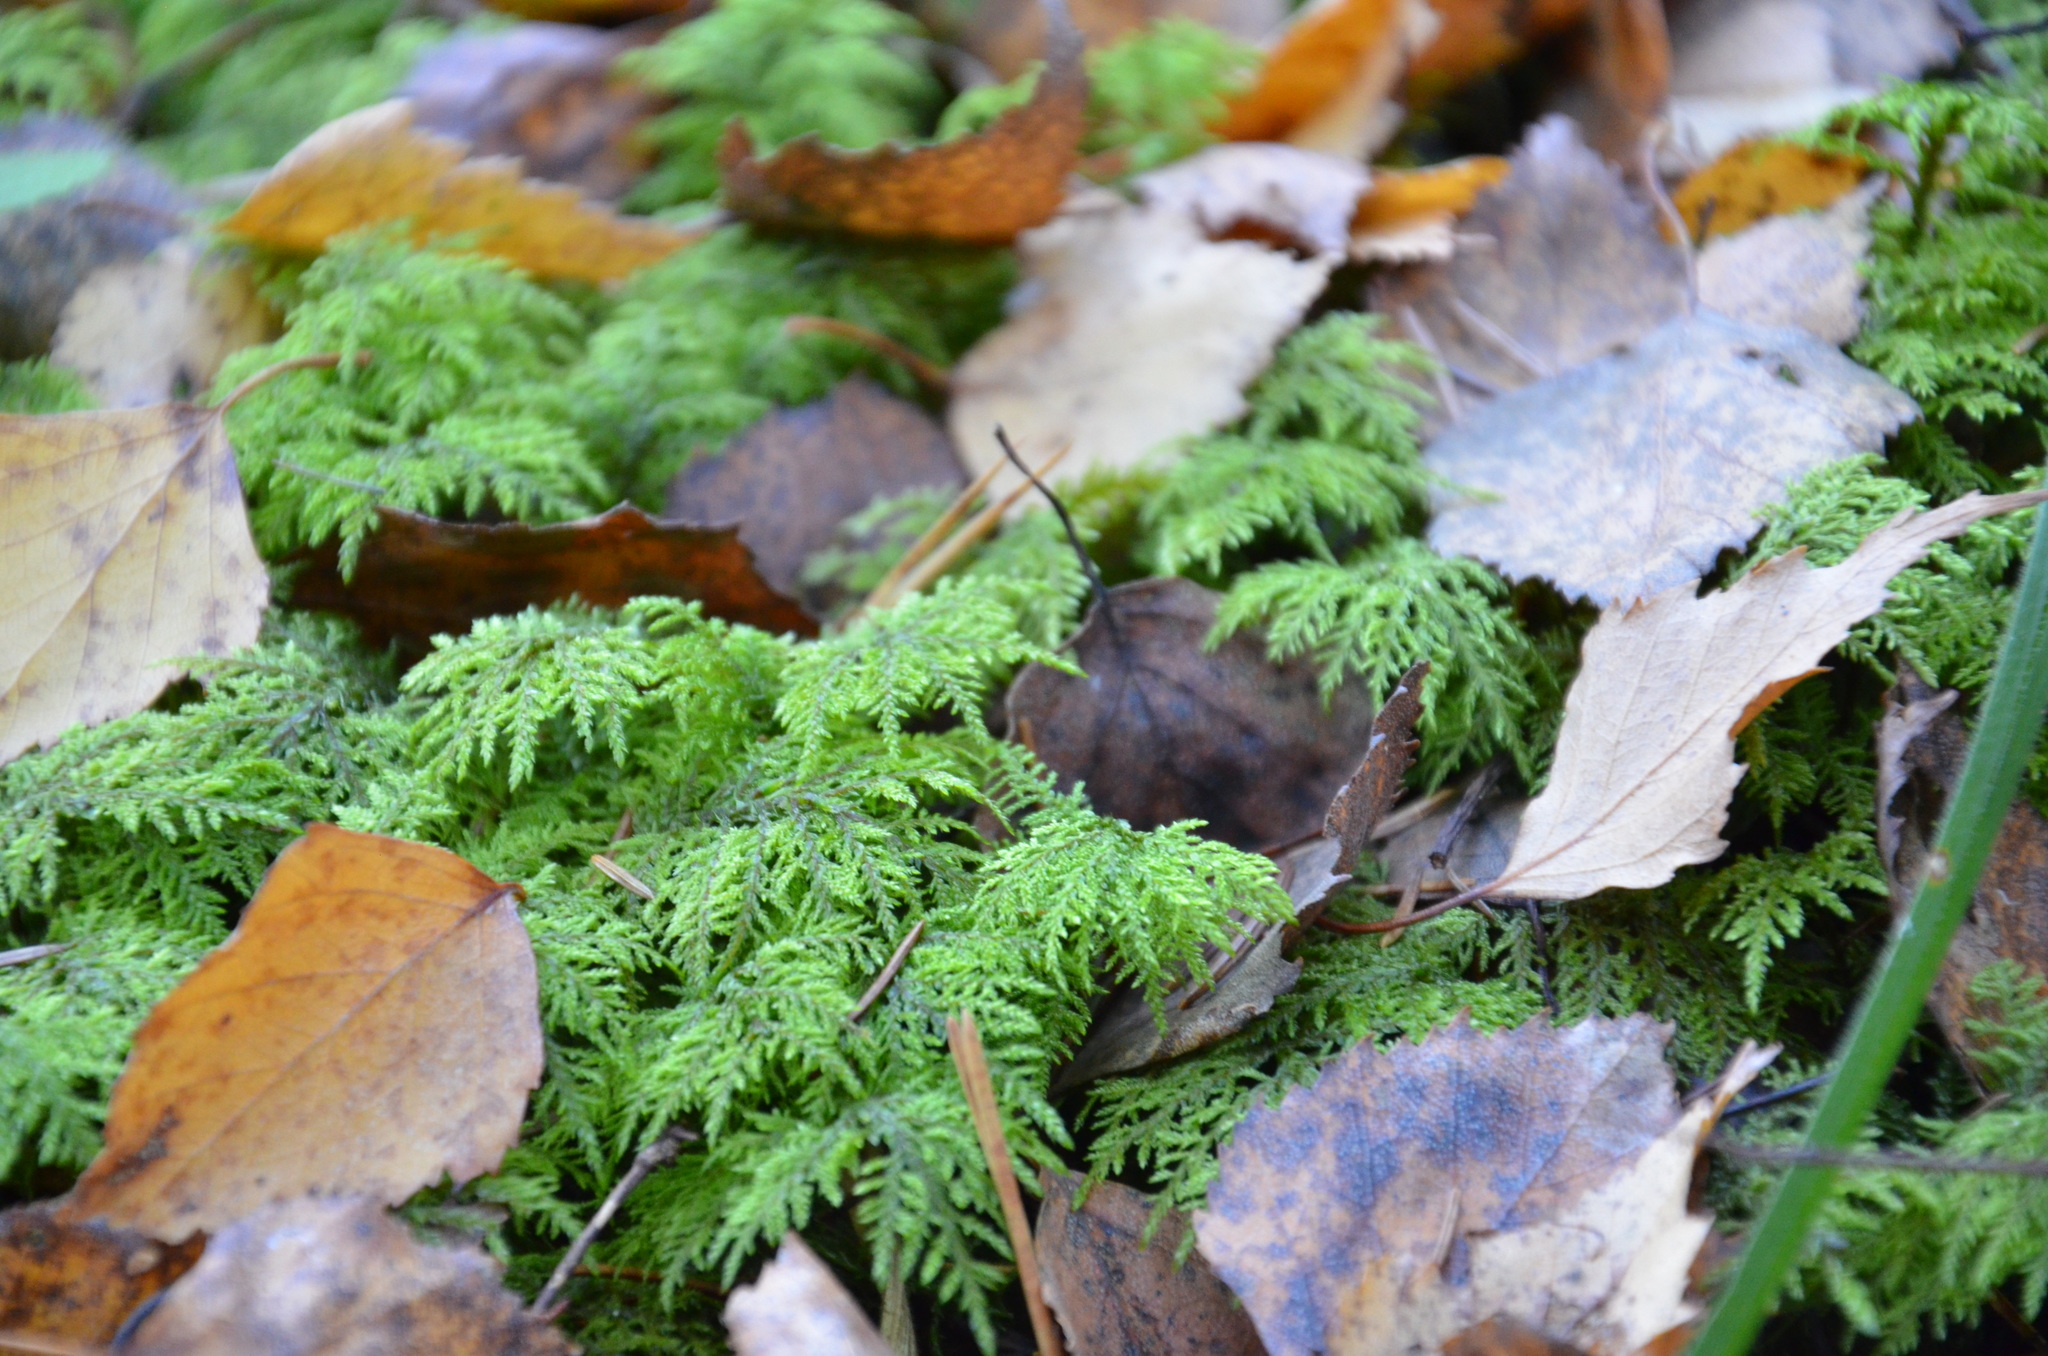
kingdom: Plantae
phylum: Bryophyta
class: Bryopsida
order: Hypnales
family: Hylocomiaceae
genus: Hylocomium
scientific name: Hylocomium splendens
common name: Stairstep moss
